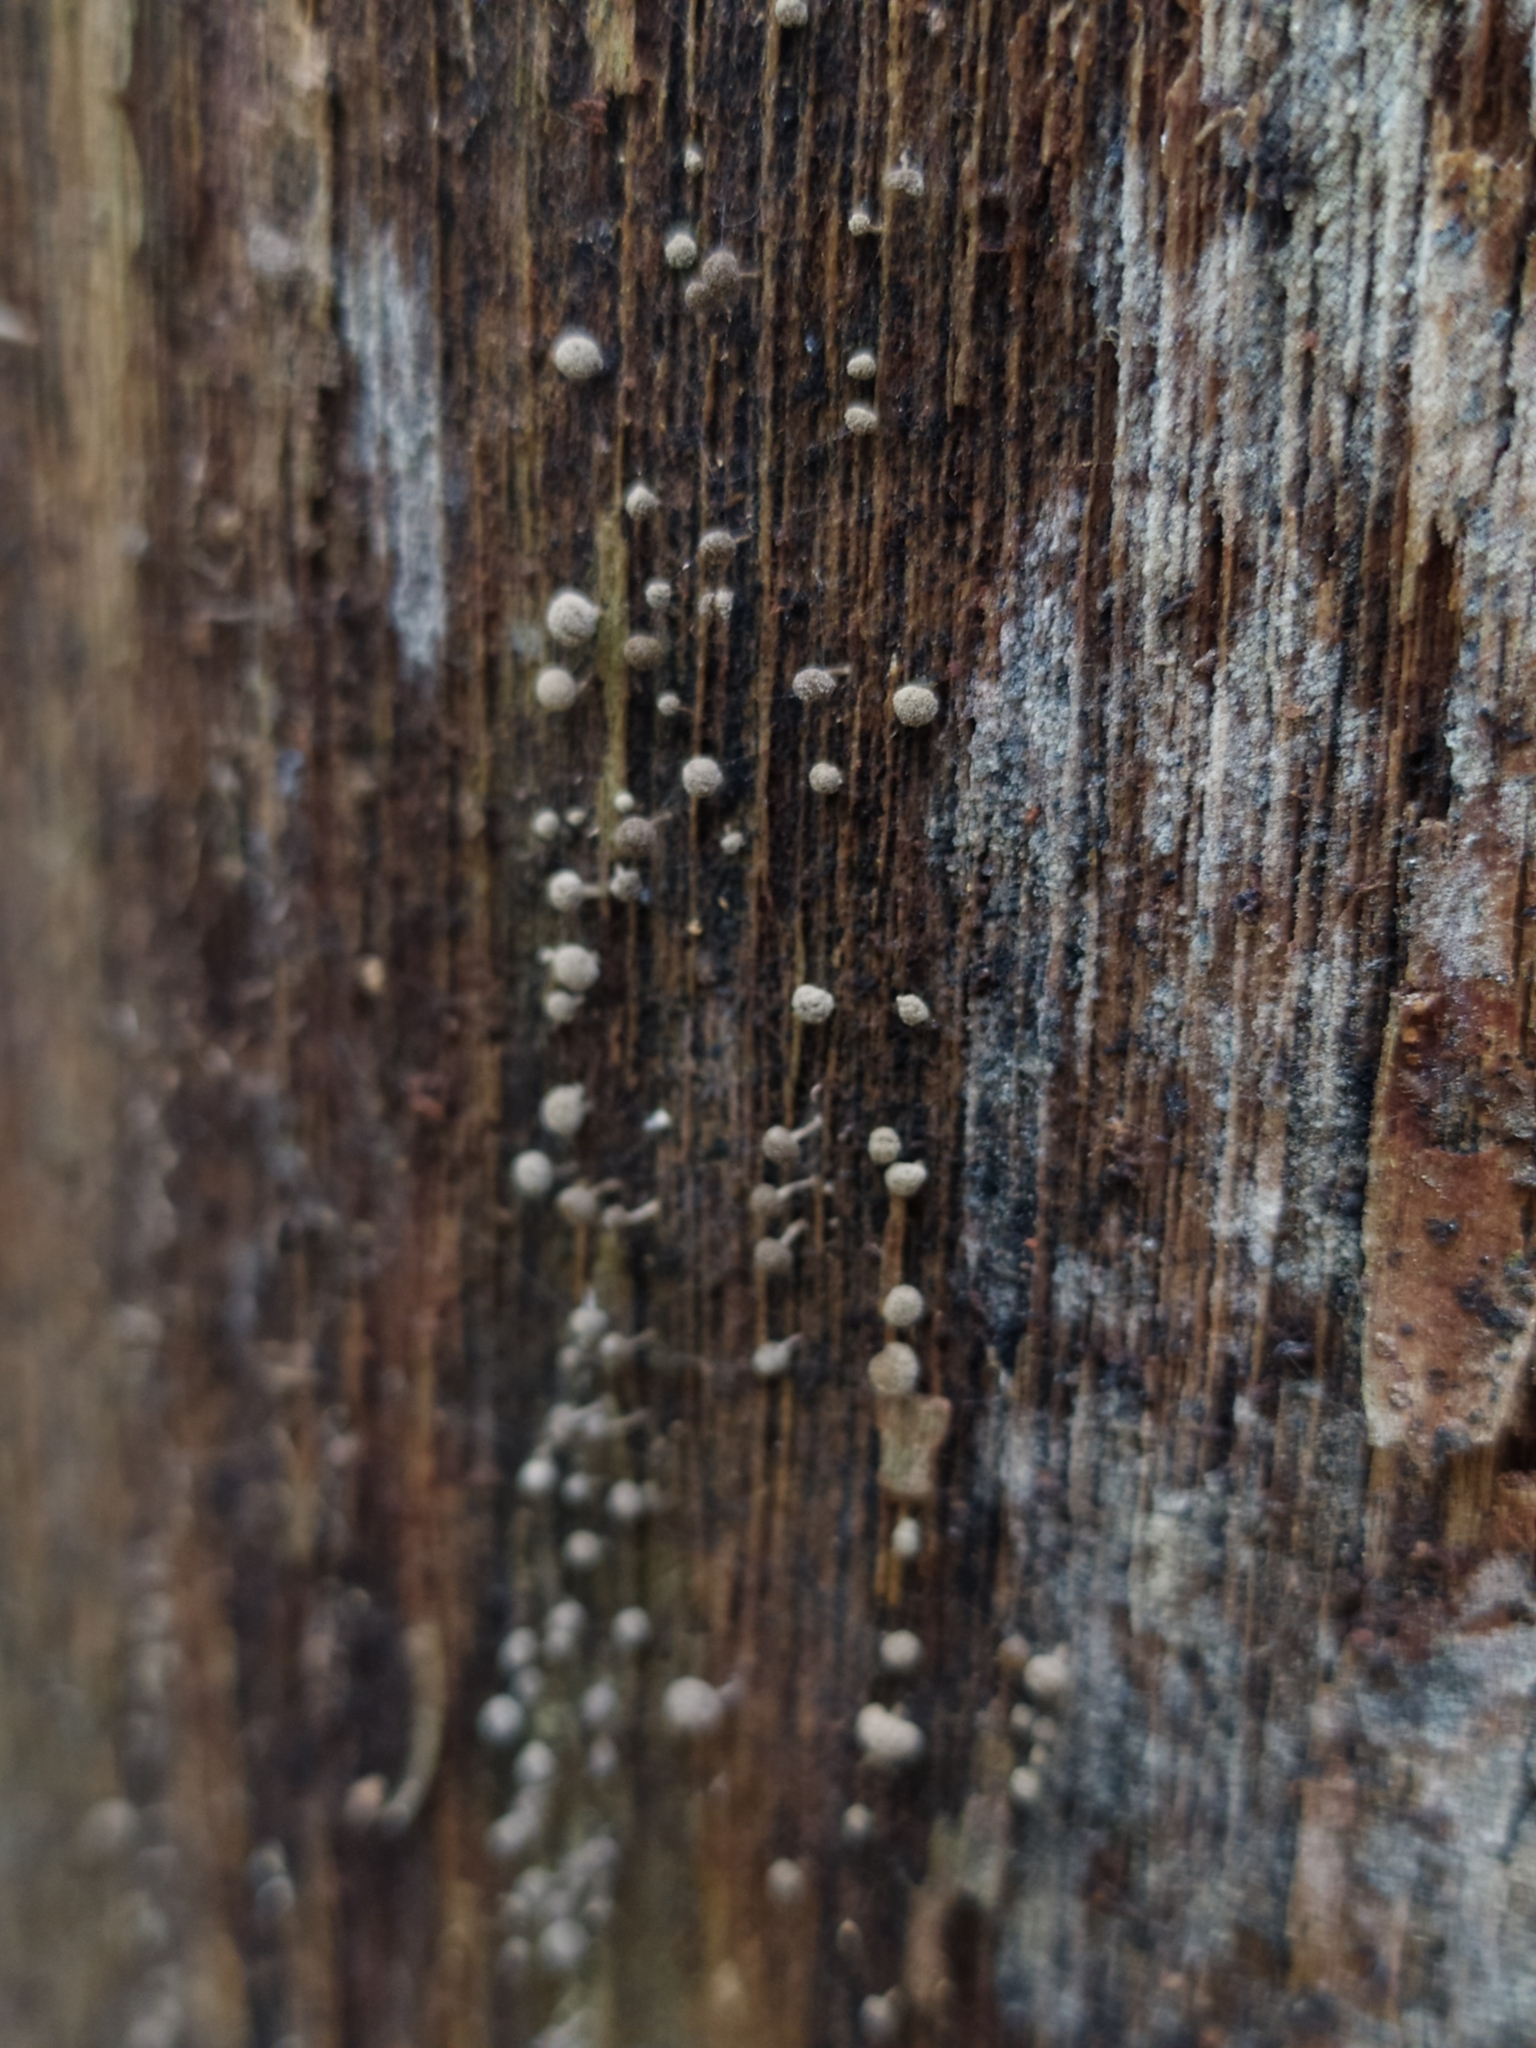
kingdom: Fungi
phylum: Basidiomycota
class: Atractiellomycetes
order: Atractiellales
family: Phleogenaceae
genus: Phleogena
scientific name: Phleogena faginea
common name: Fenugreek stalkball
